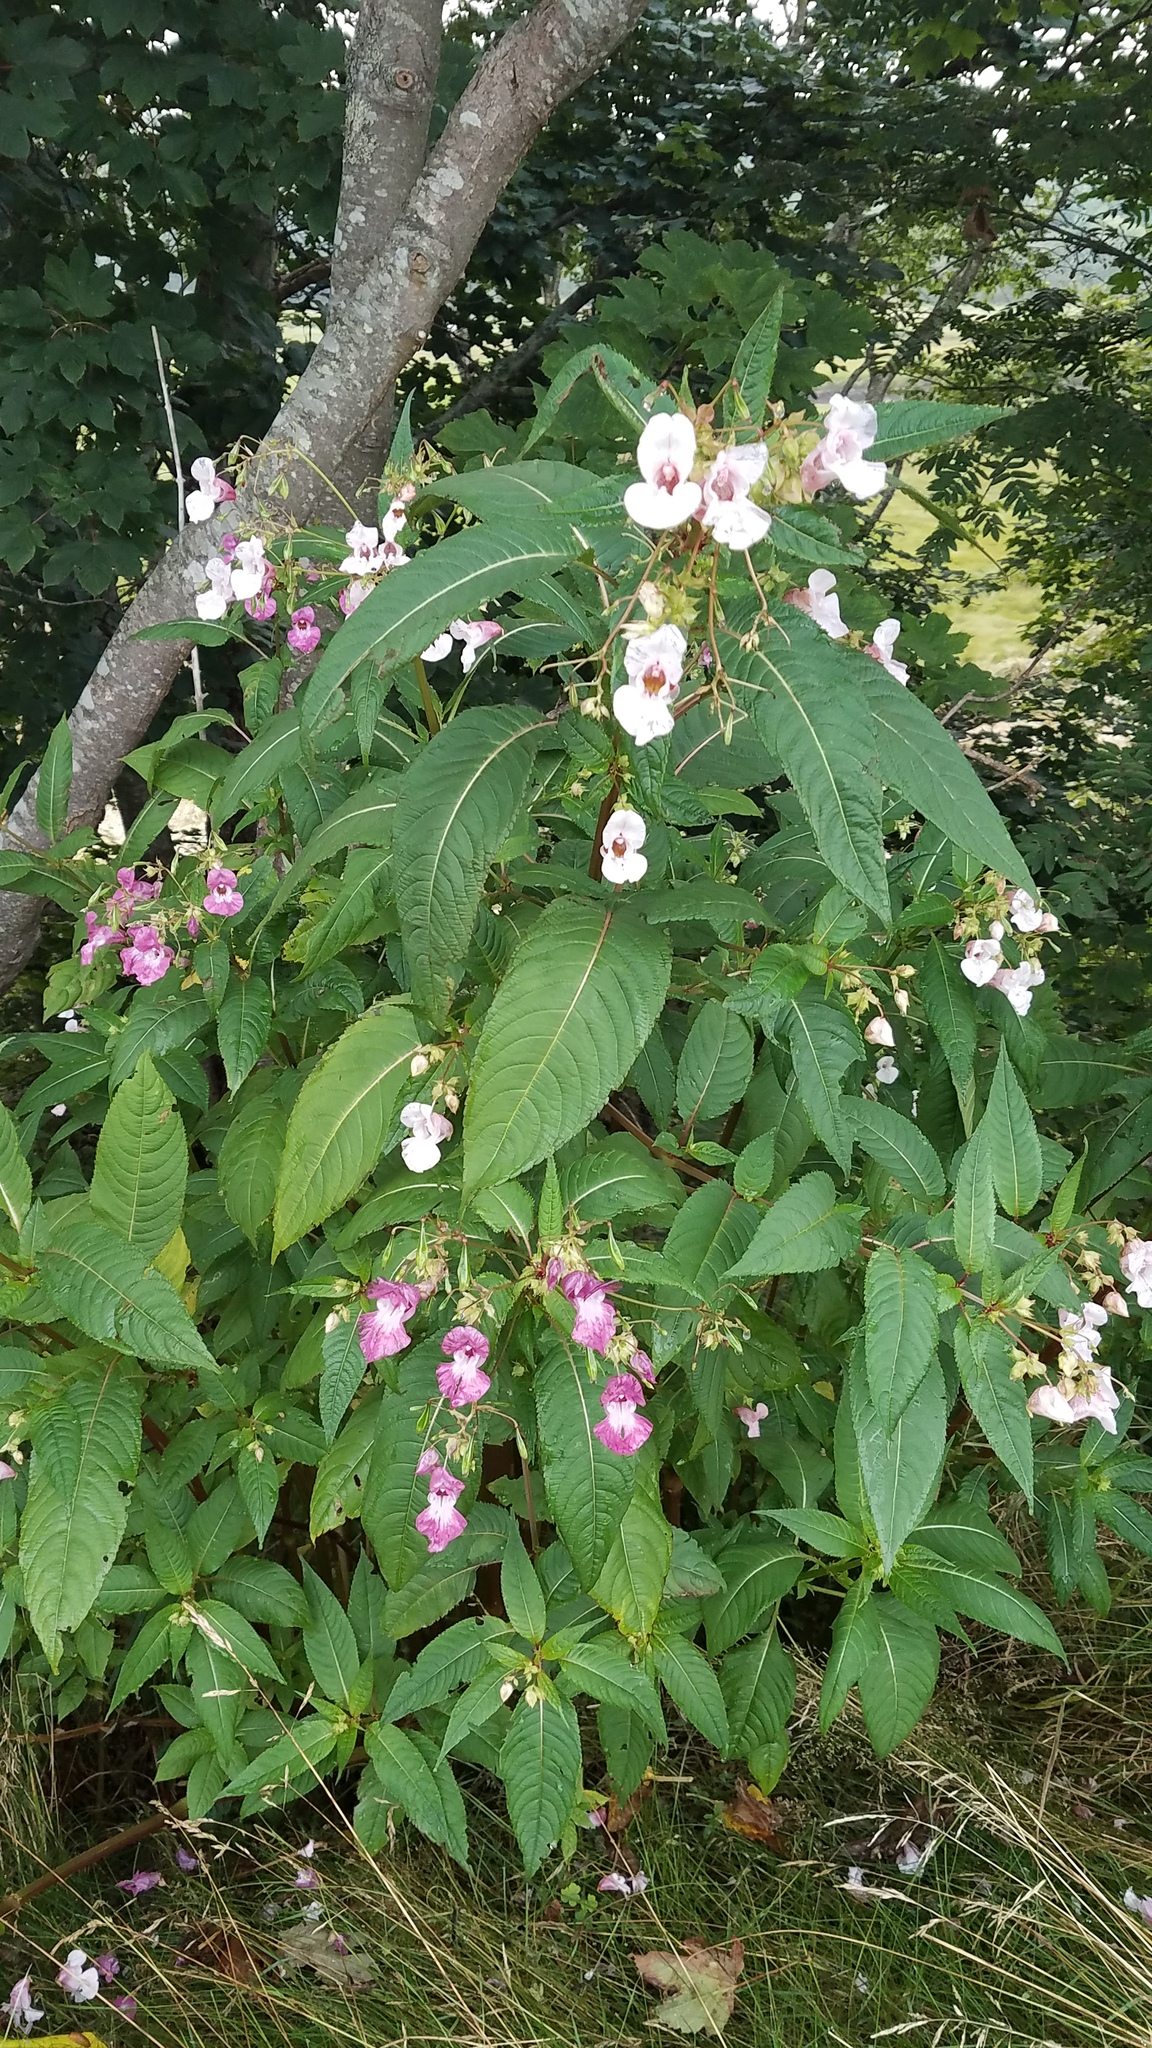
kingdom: Plantae
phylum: Tracheophyta
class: Magnoliopsida
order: Ericales
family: Balsaminaceae
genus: Impatiens
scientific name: Impatiens glandulifera
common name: Himalayan balsam
